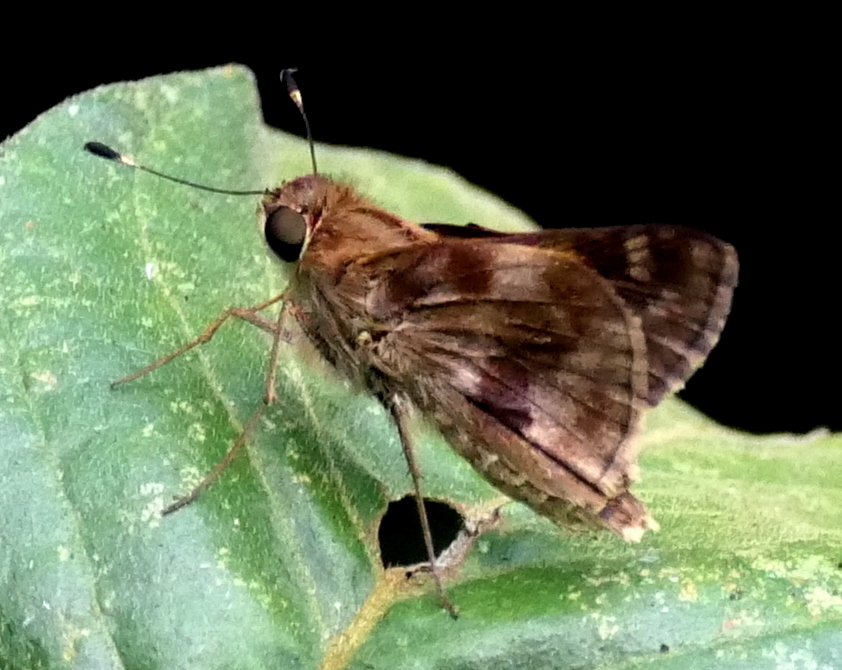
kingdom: Animalia
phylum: Arthropoda
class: Insecta
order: Lepidoptera
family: Hesperiidae
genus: Pompeius
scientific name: Pompeius pompeius
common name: Pompeius skipper
